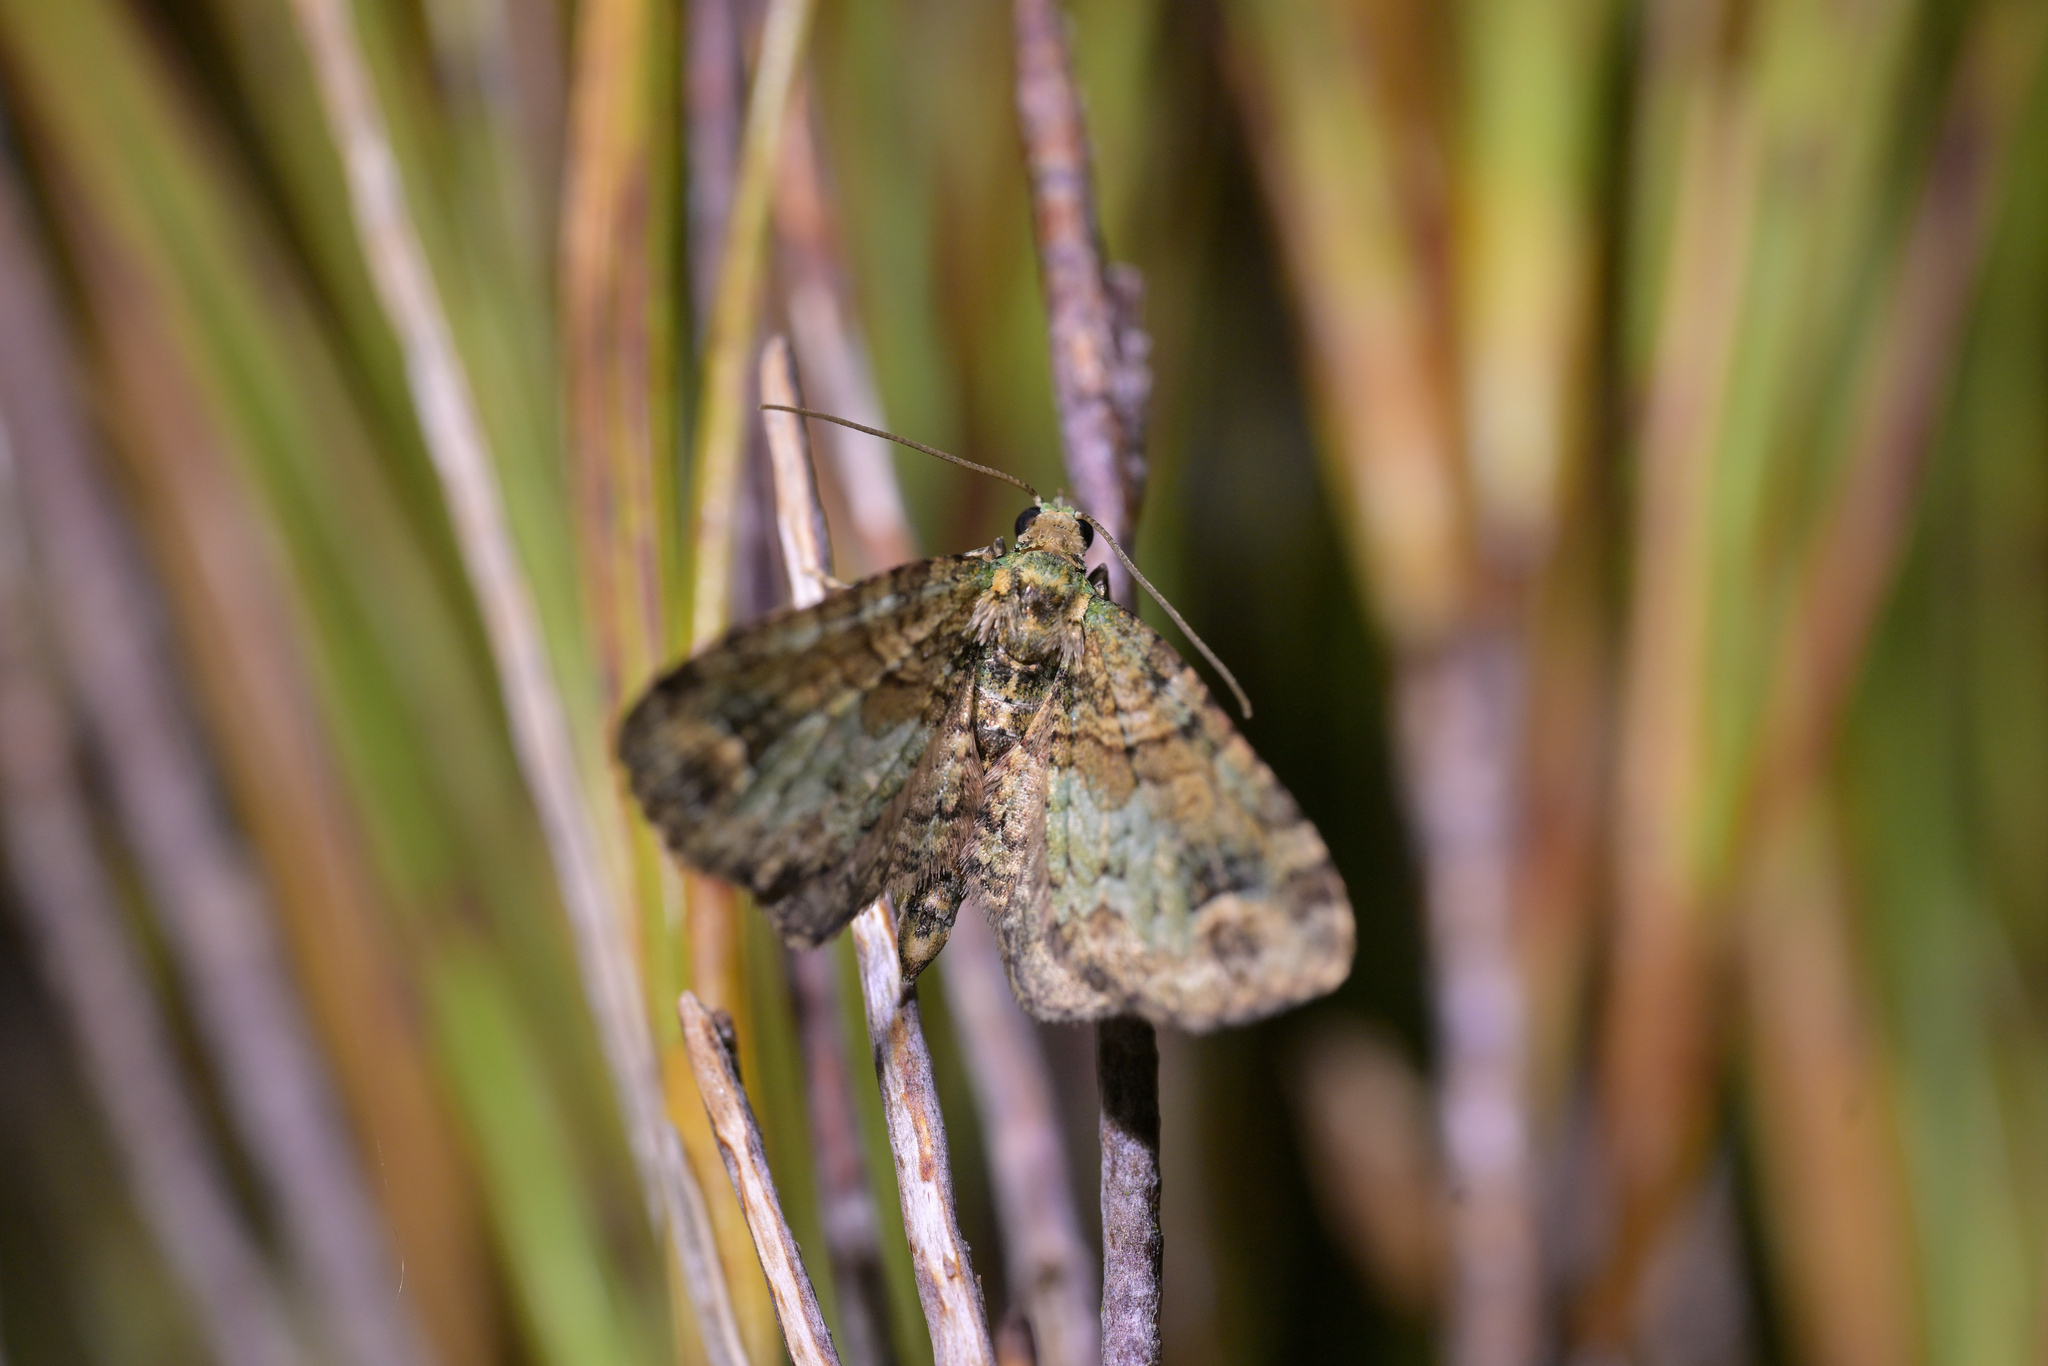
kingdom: Animalia
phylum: Arthropoda
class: Insecta
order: Lepidoptera
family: Geometridae
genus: Idaea
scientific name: Idaea mutanda
